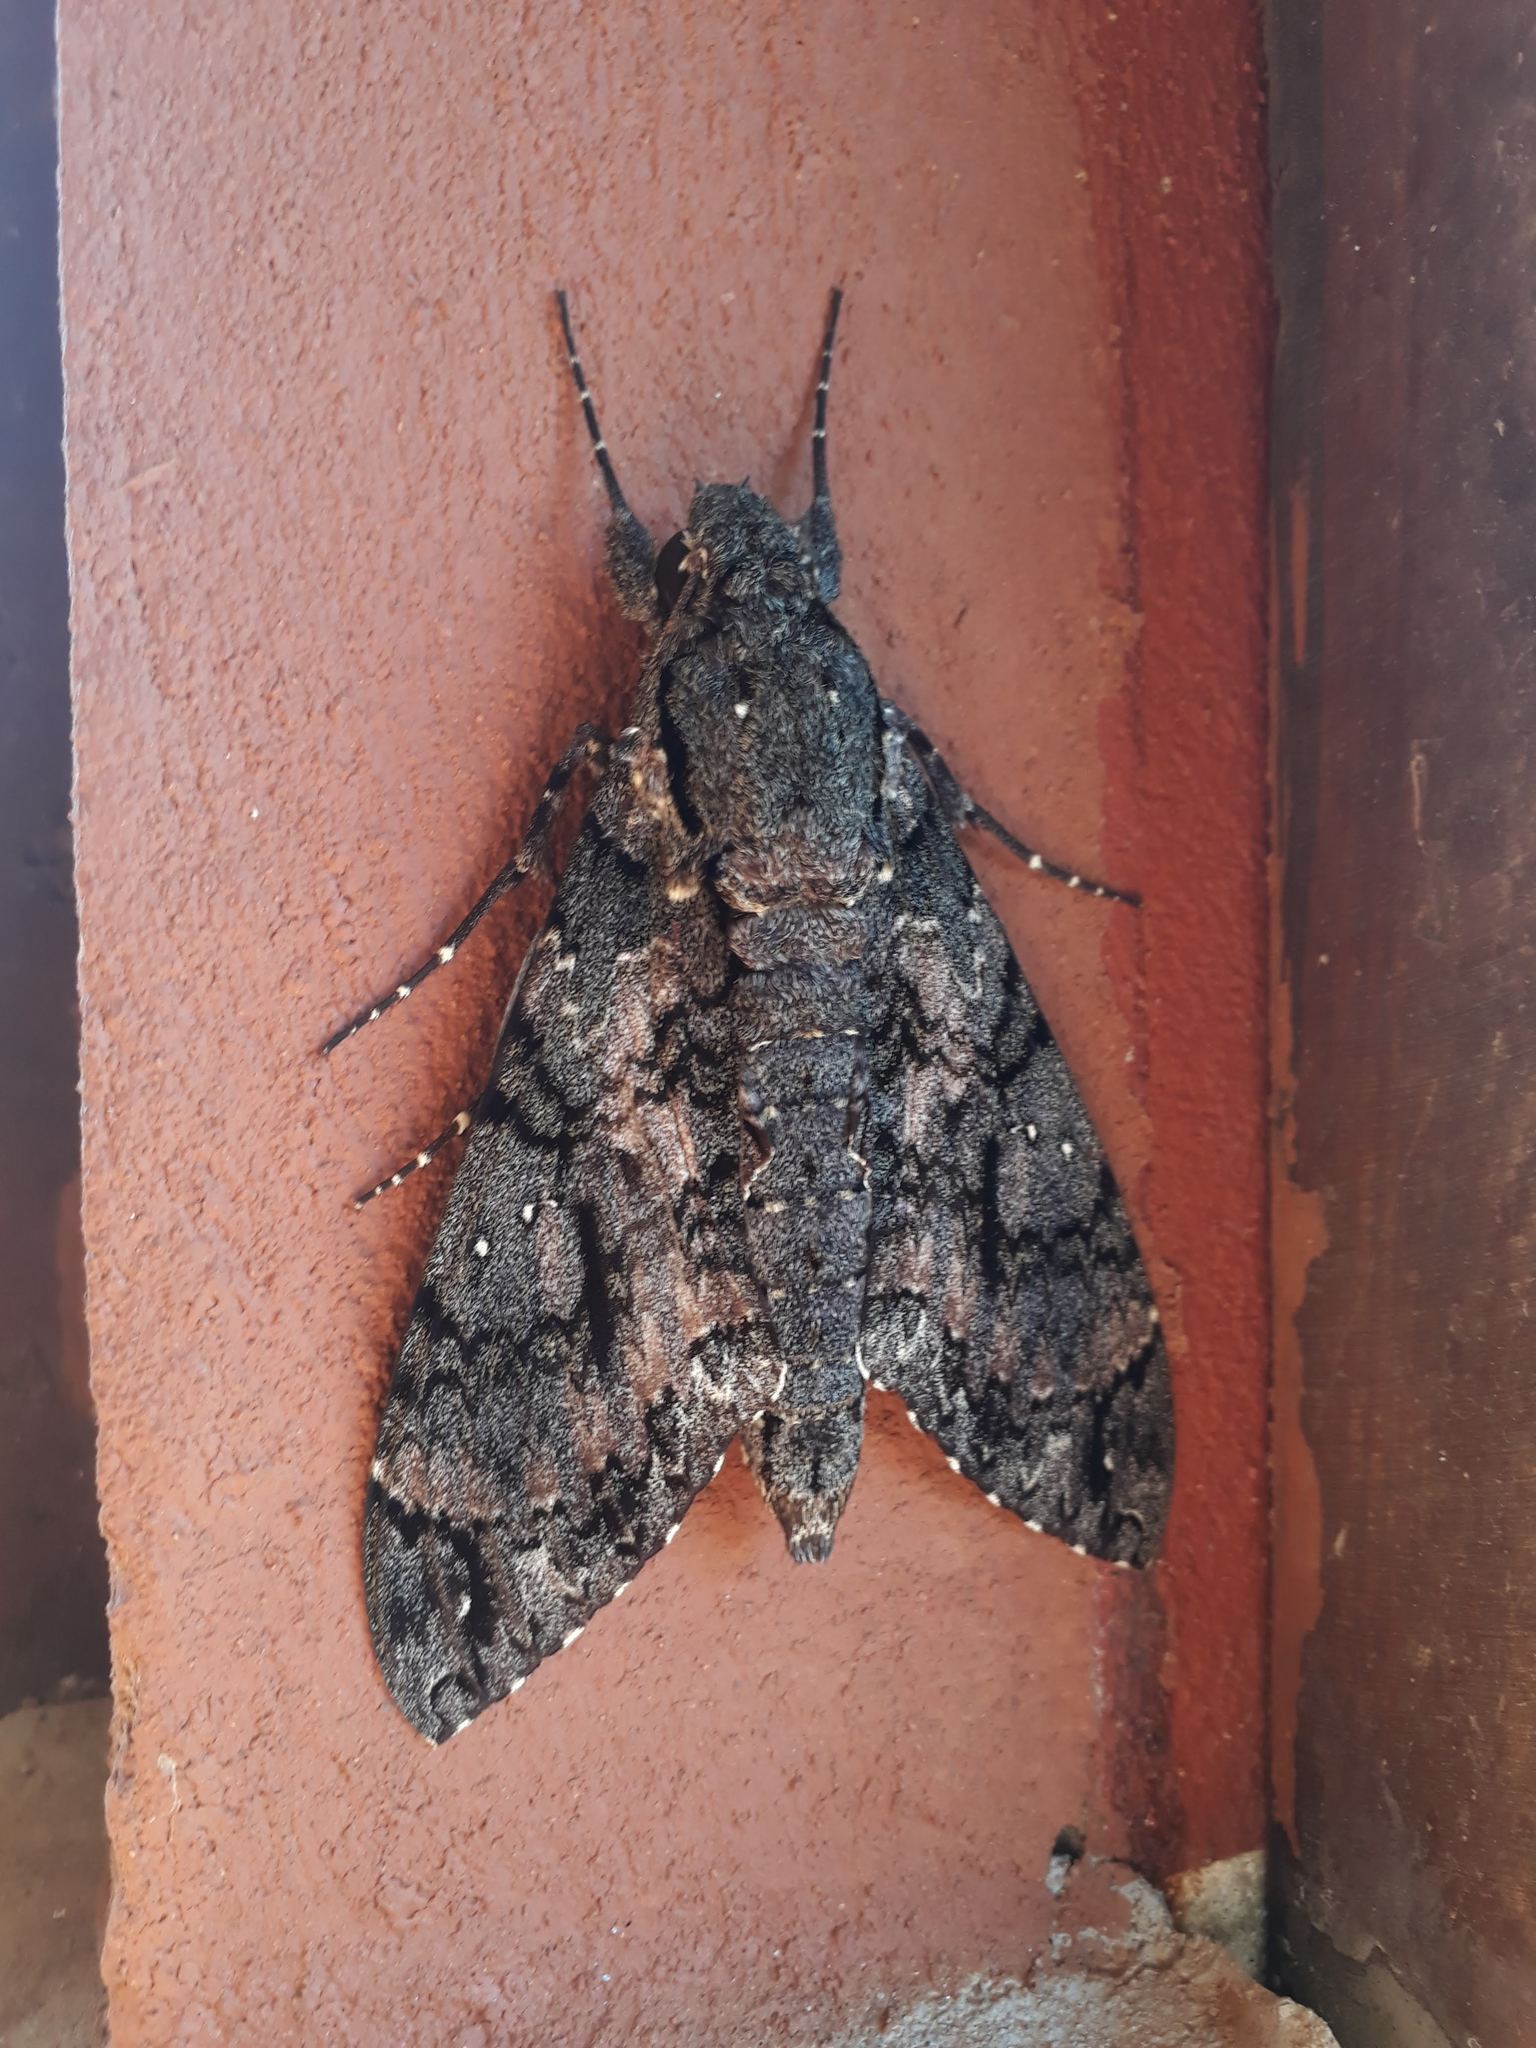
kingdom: Animalia
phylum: Arthropoda
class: Insecta
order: Lepidoptera
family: Sphingidae
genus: Cocytius
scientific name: Cocytius antaeus
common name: Giant sphinx
